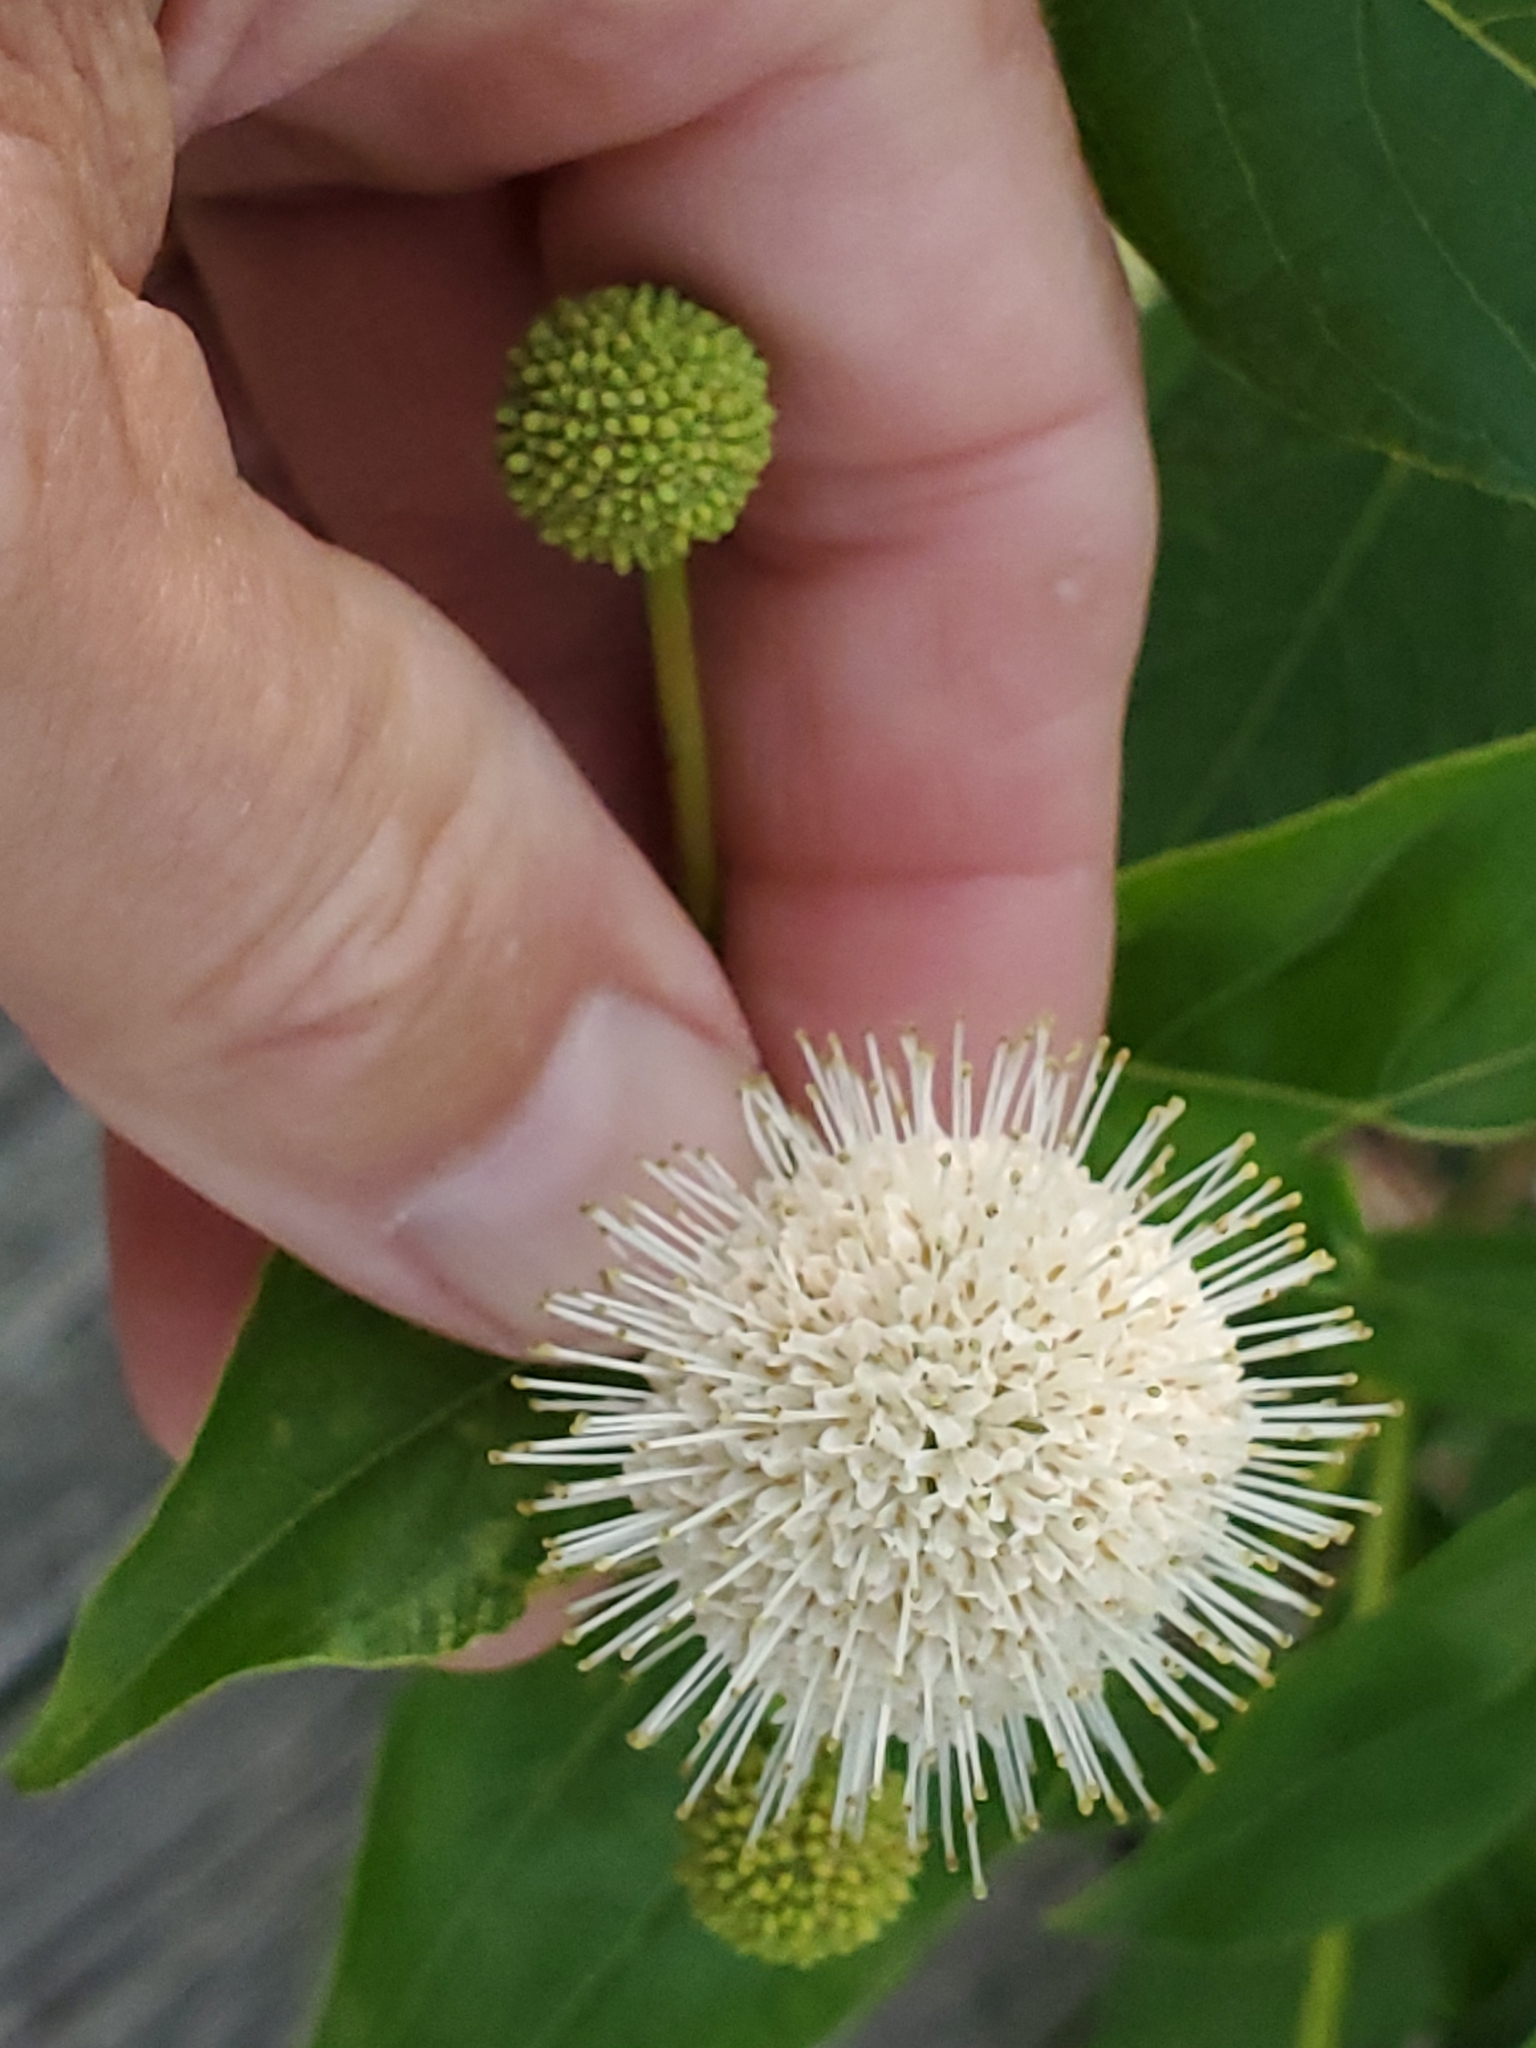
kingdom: Plantae
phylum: Tracheophyta
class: Magnoliopsida
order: Gentianales
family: Rubiaceae
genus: Cephalanthus
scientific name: Cephalanthus occidentalis
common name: Button-willow
